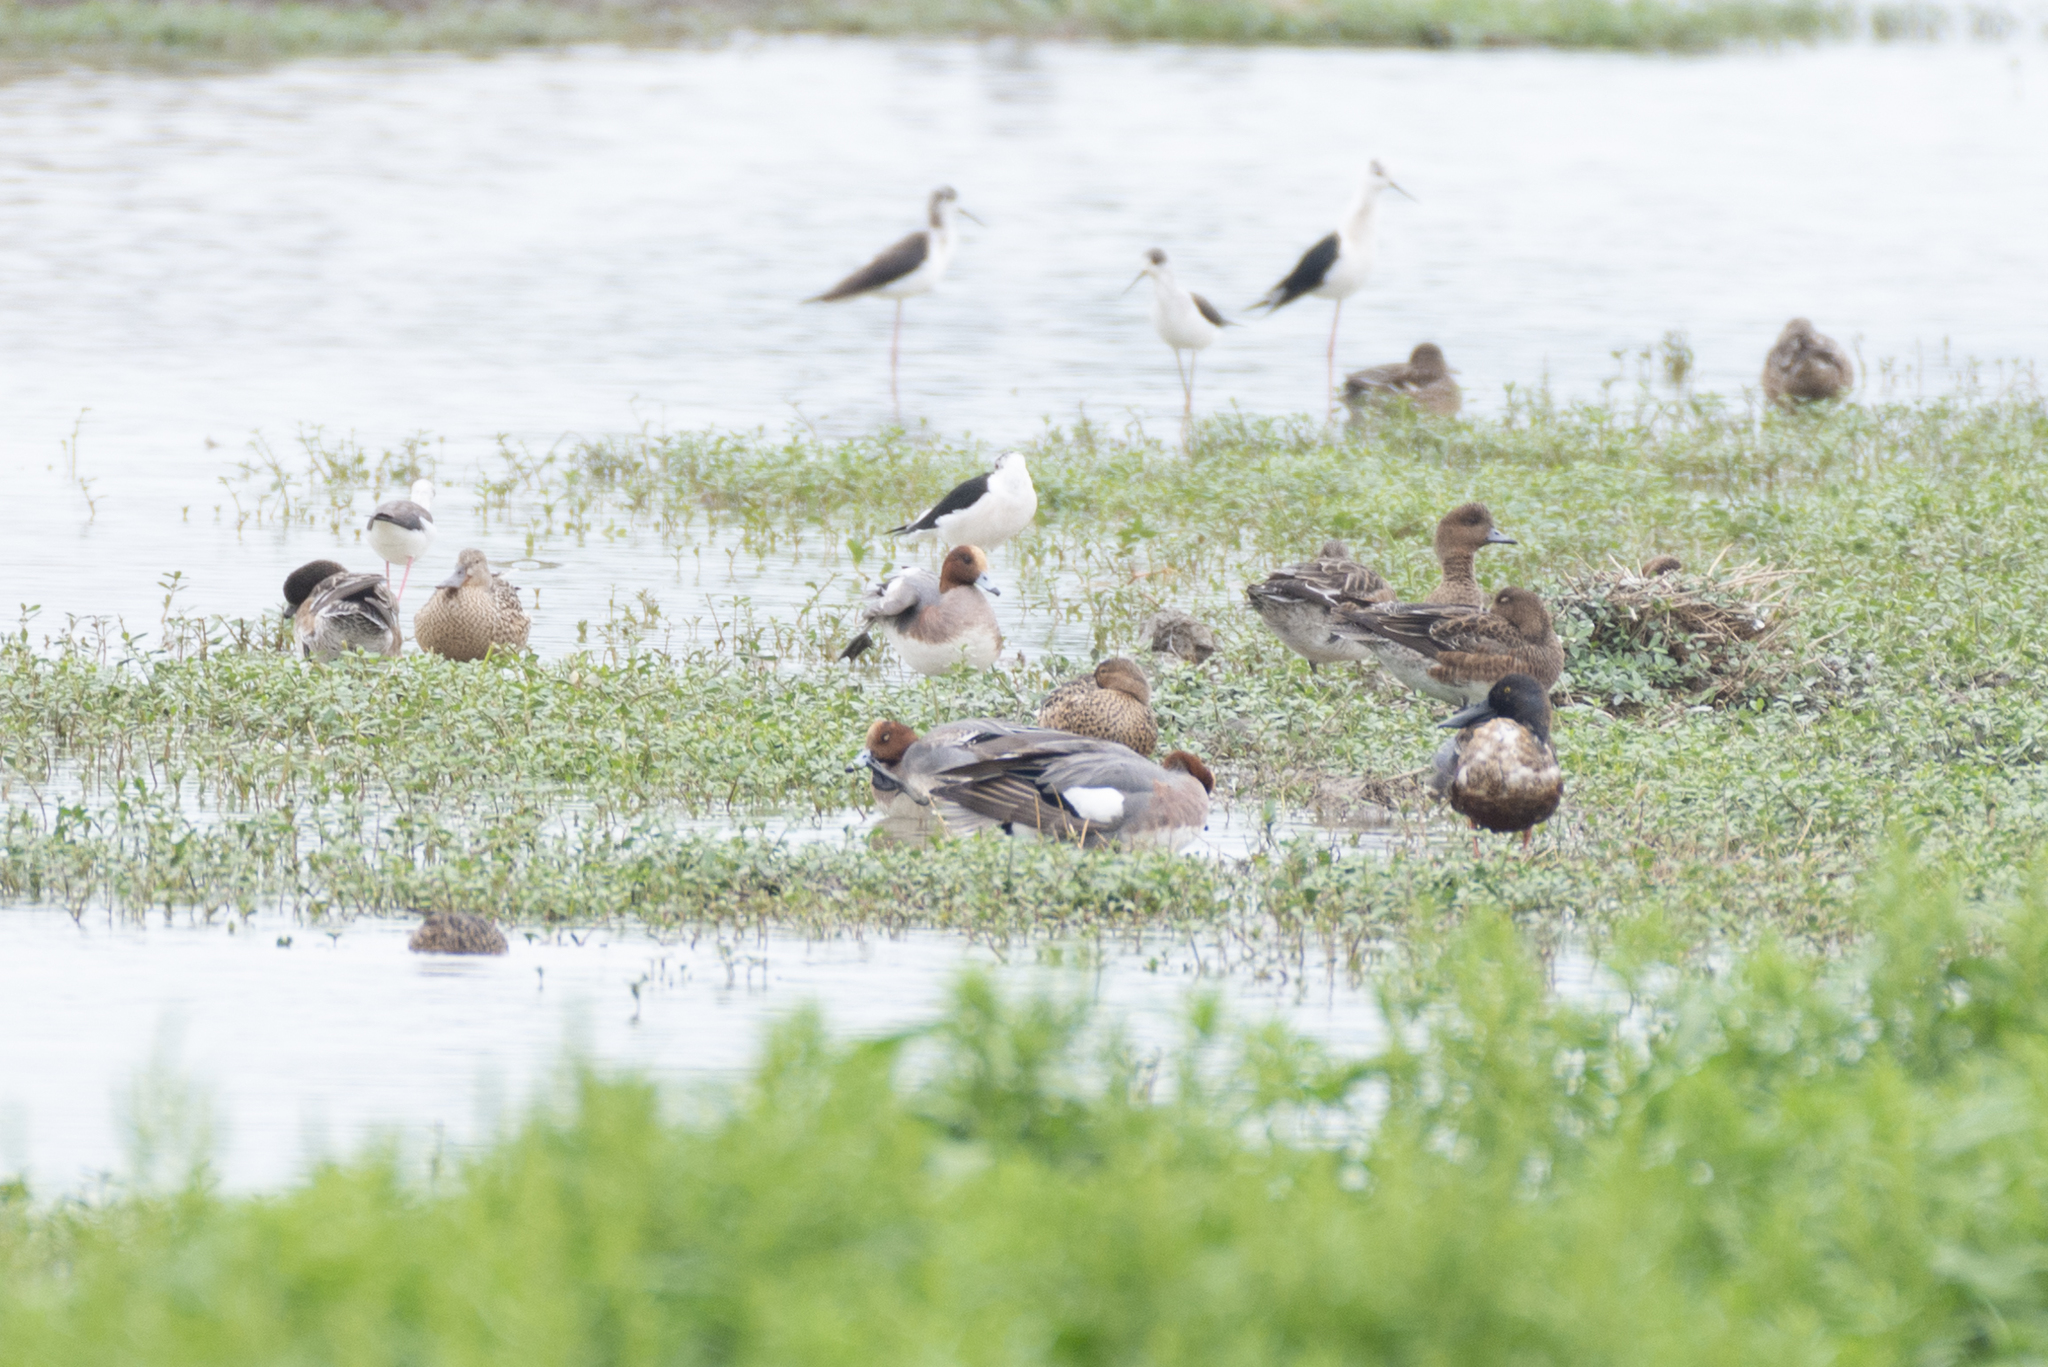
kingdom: Animalia
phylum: Chordata
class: Aves
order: Anseriformes
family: Anatidae
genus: Mareca
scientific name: Mareca penelope
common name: Eurasian wigeon
